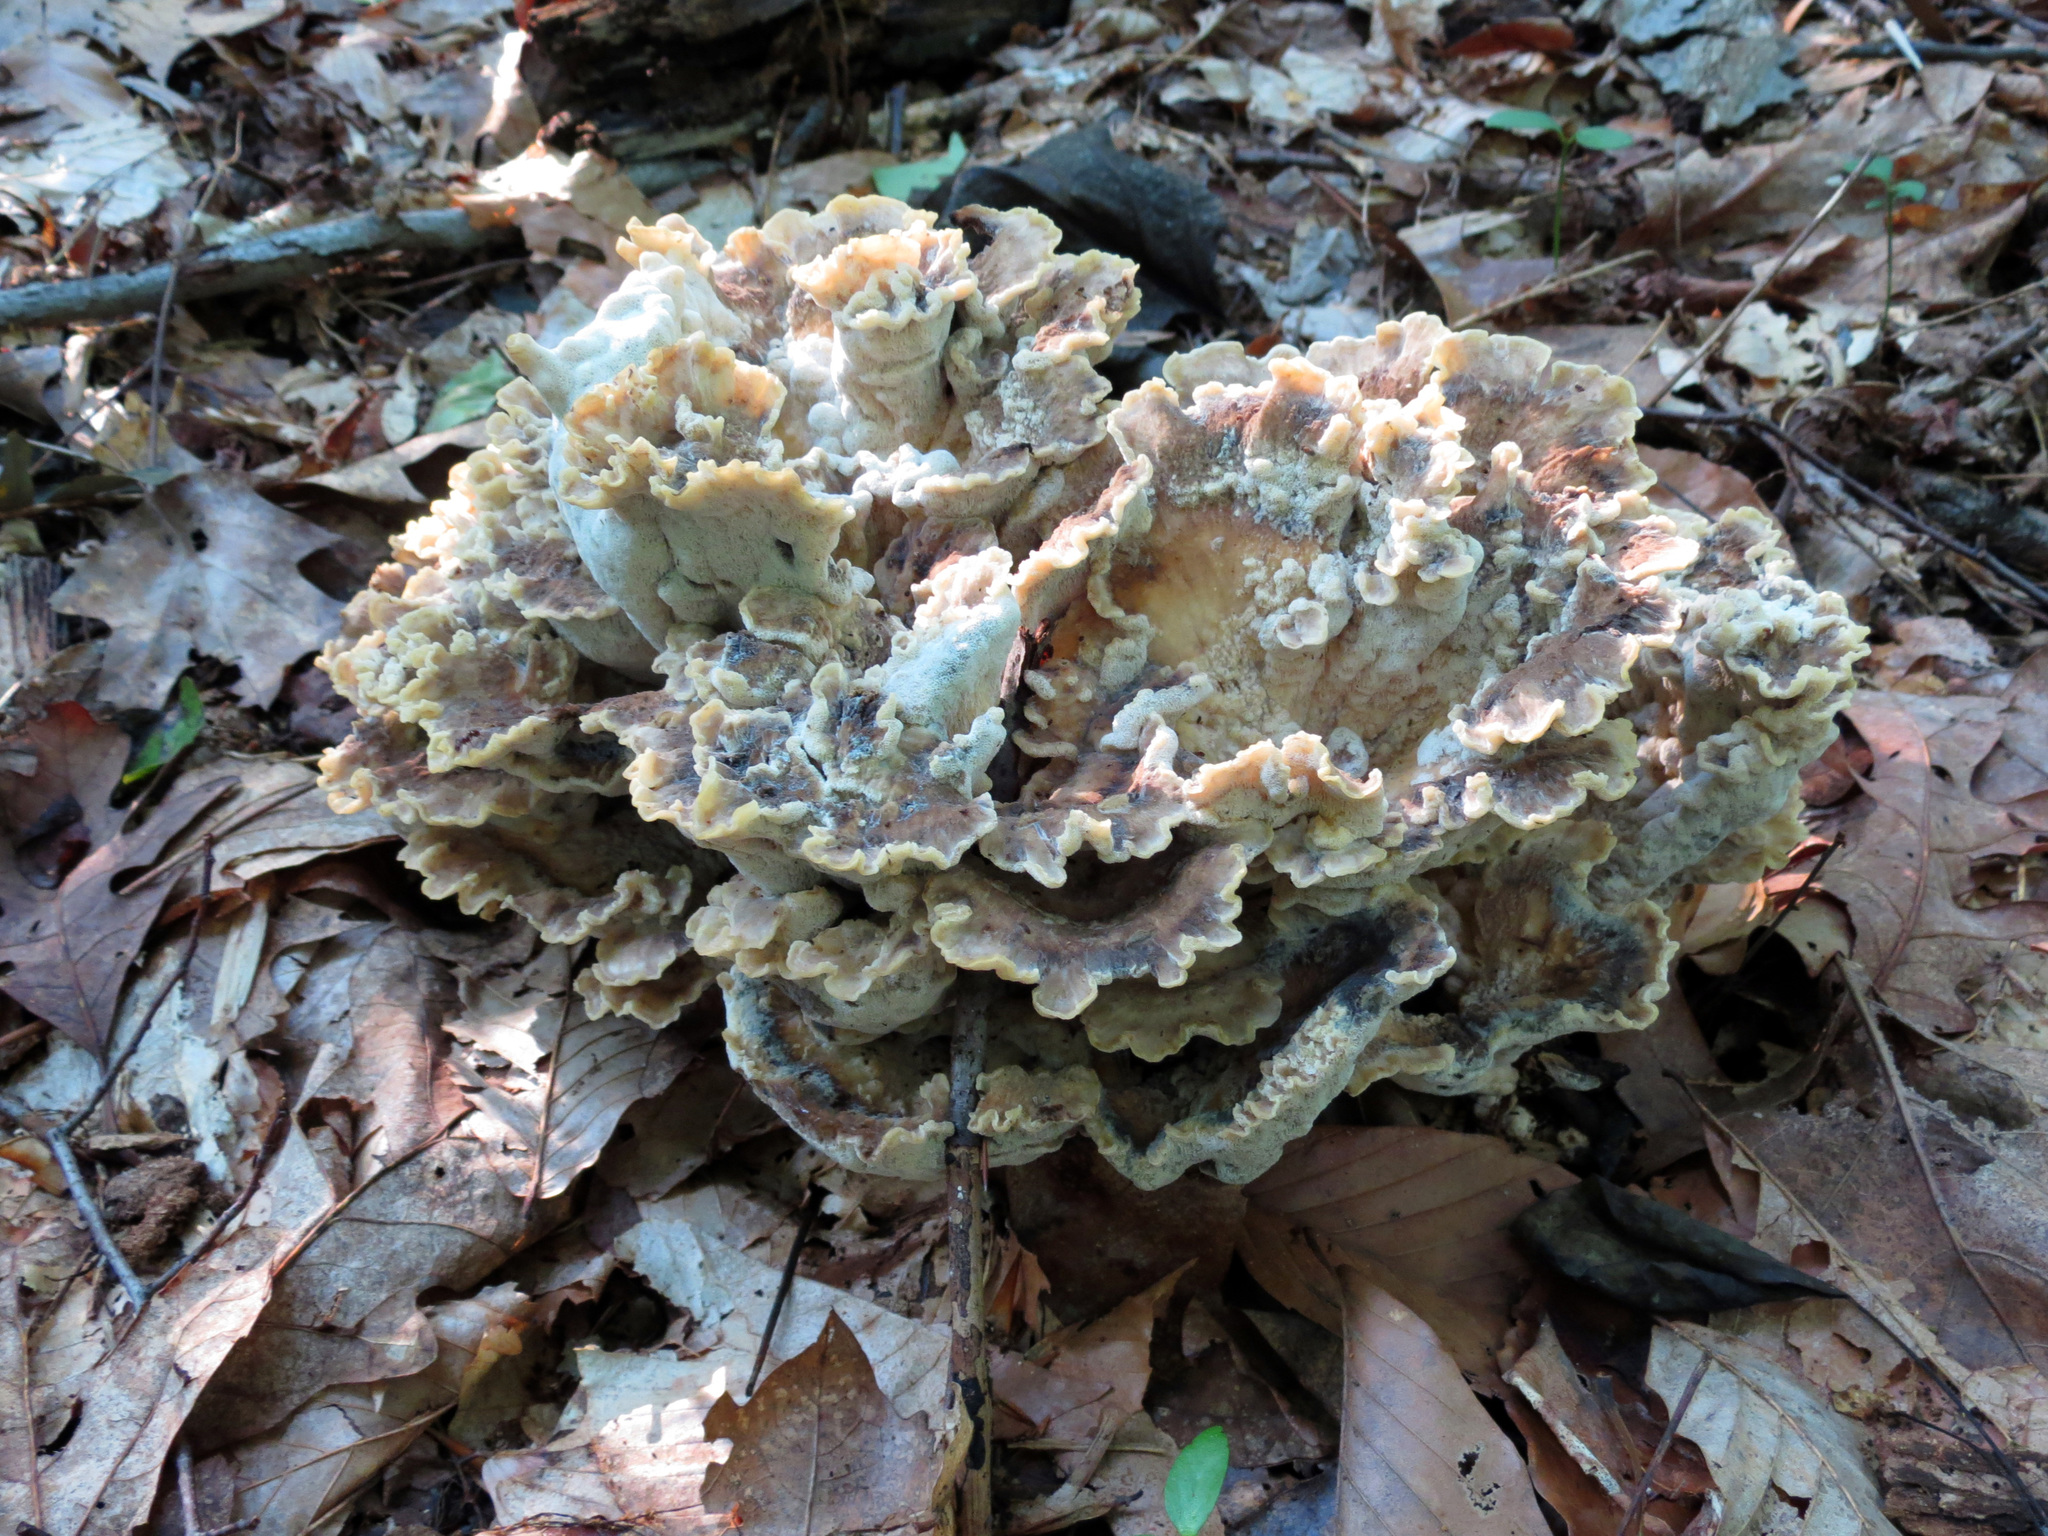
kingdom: Fungi
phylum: Basidiomycota
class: Agaricomycetes
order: Polyporales
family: Meripilaceae
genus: Meripilus
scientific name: Meripilus sumstinei
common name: Black-staining polypore
